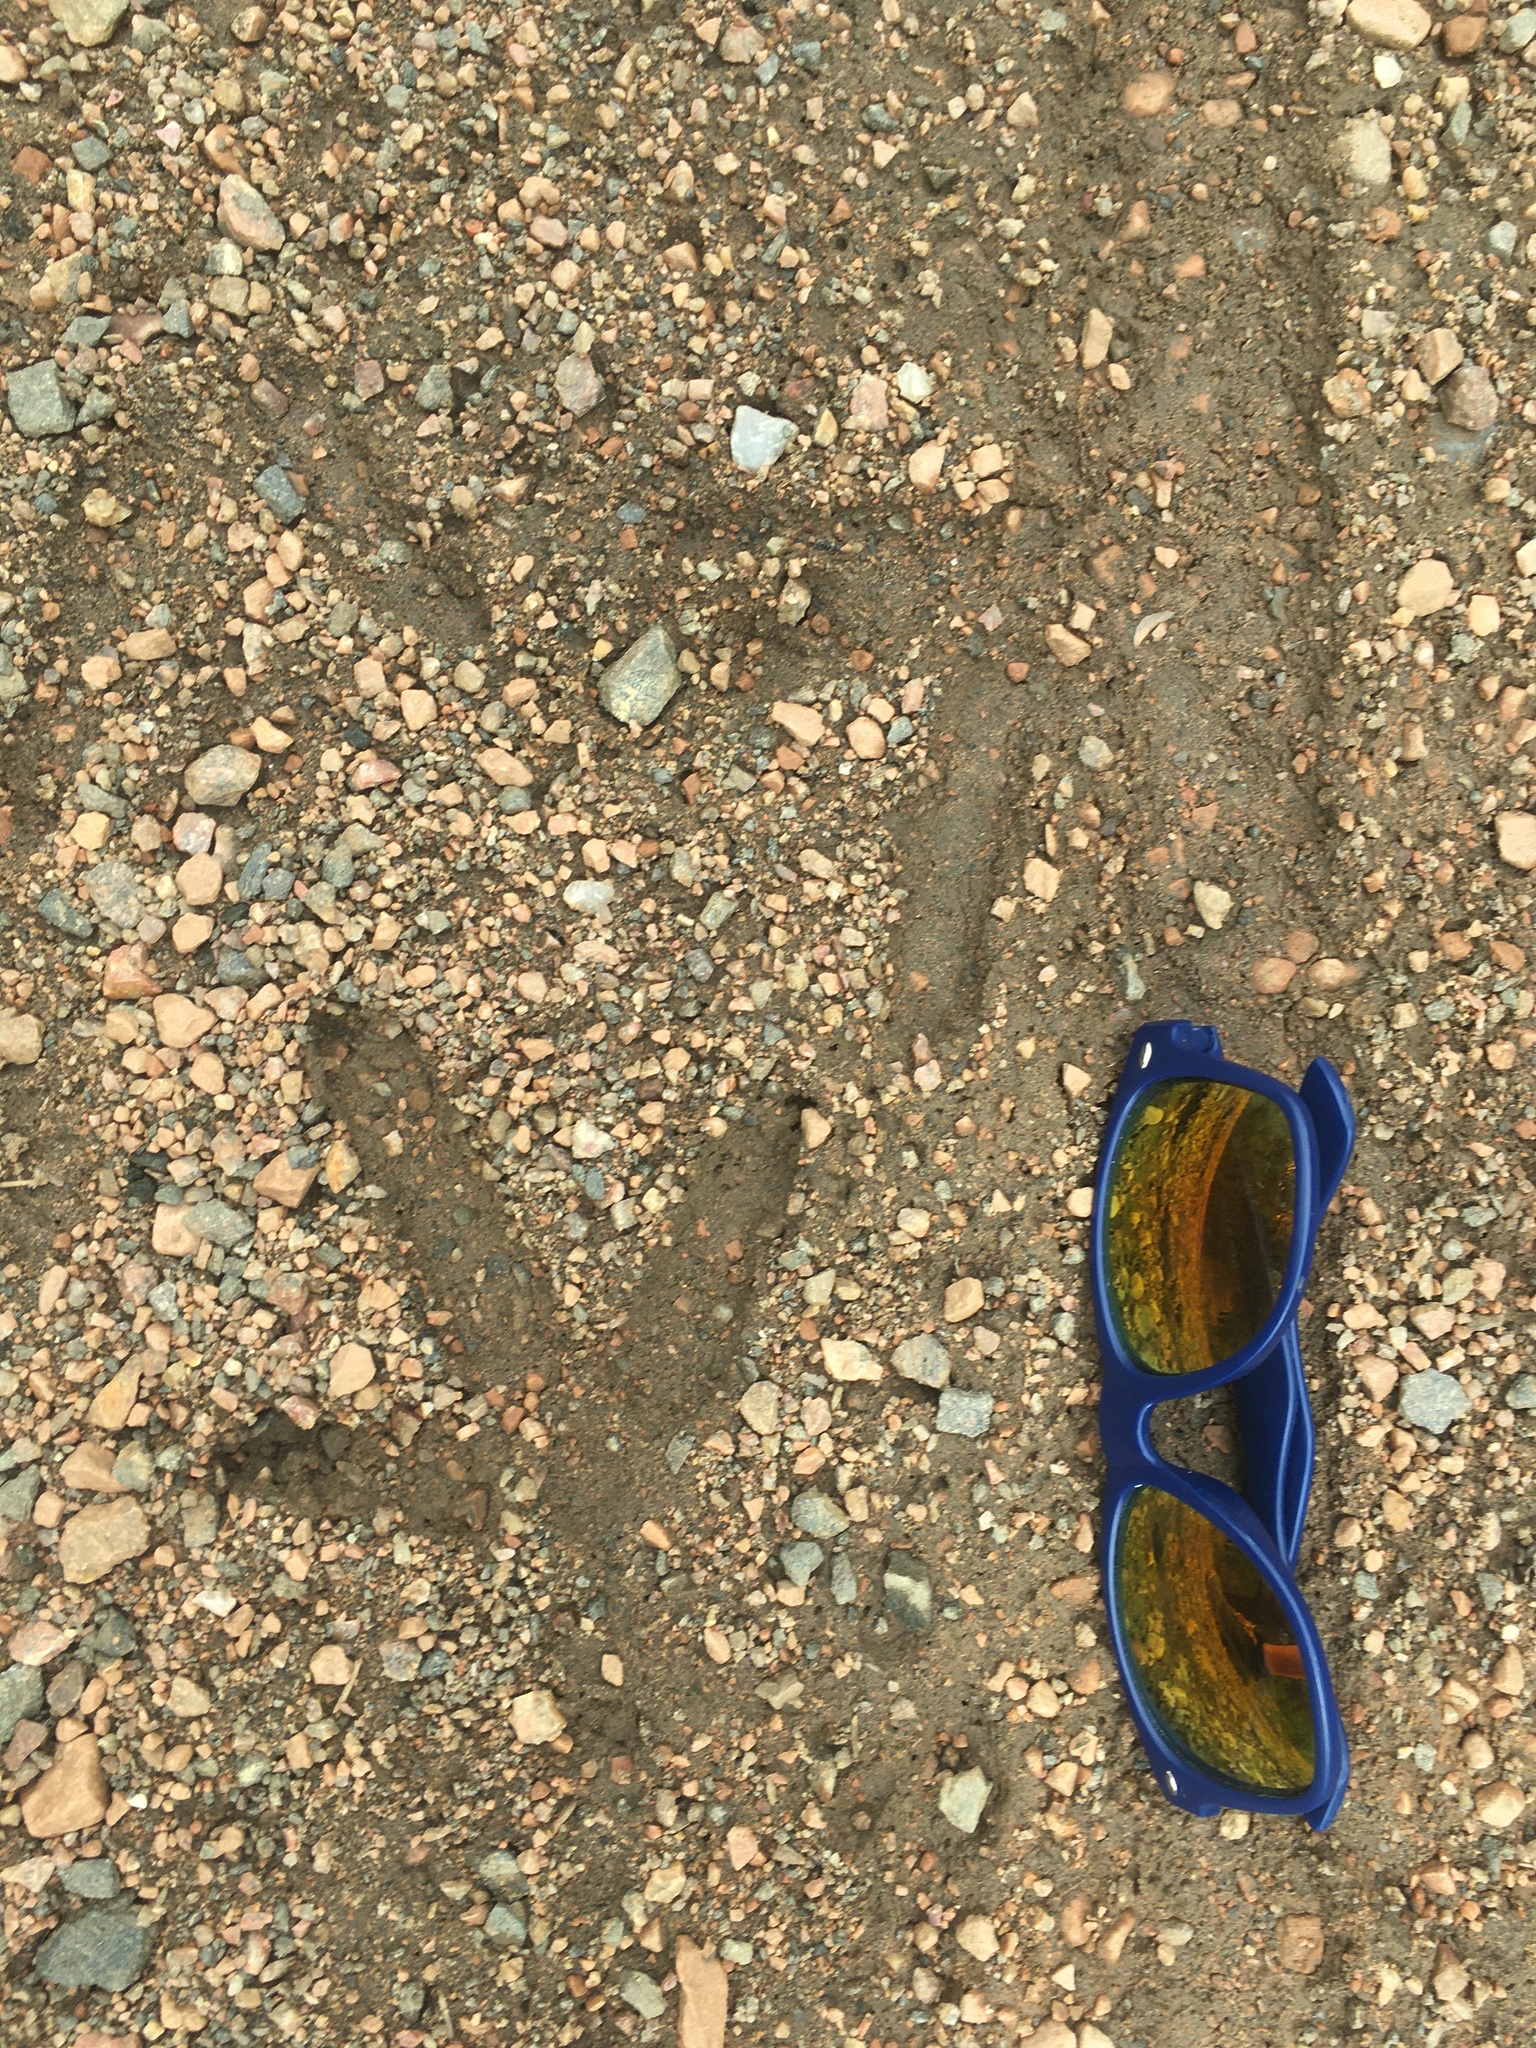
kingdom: Animalia
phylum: Chordata
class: Aves
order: Galliformes
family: Phasianidae
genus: Meleagris
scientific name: Meleagris gallopavo
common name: Wild turkey
